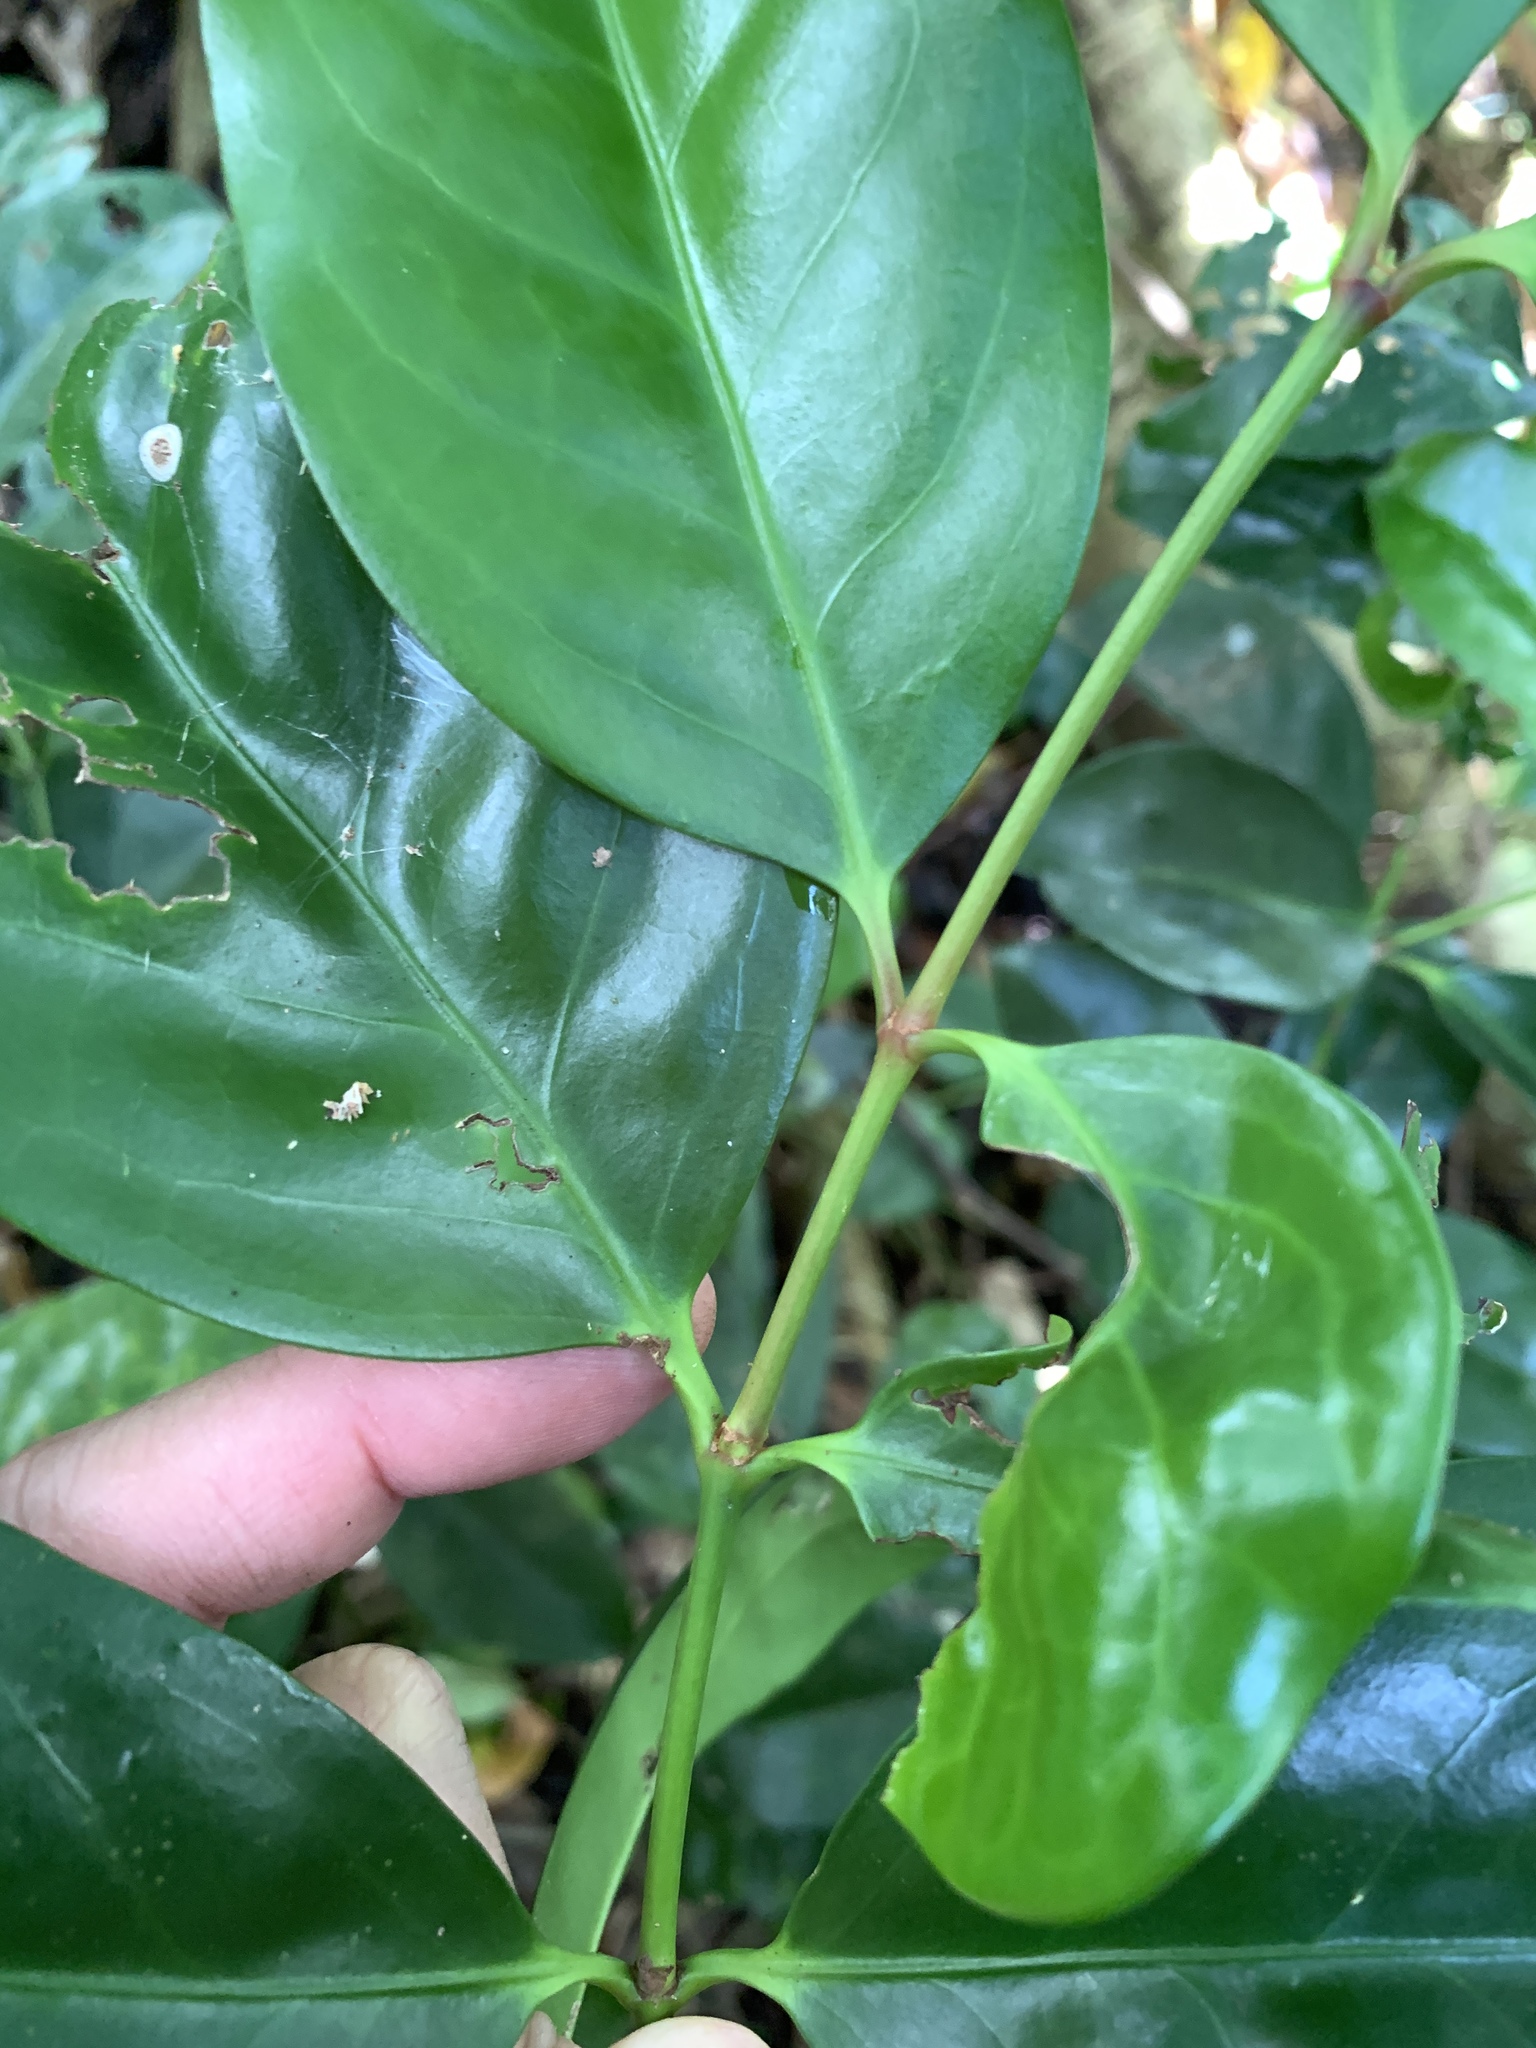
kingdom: Plantae
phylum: Tracheophyta
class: Magnoliopsida
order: Celastrales
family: Celastraceae
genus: Euonymus
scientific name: Euonymus cochinchinensis
